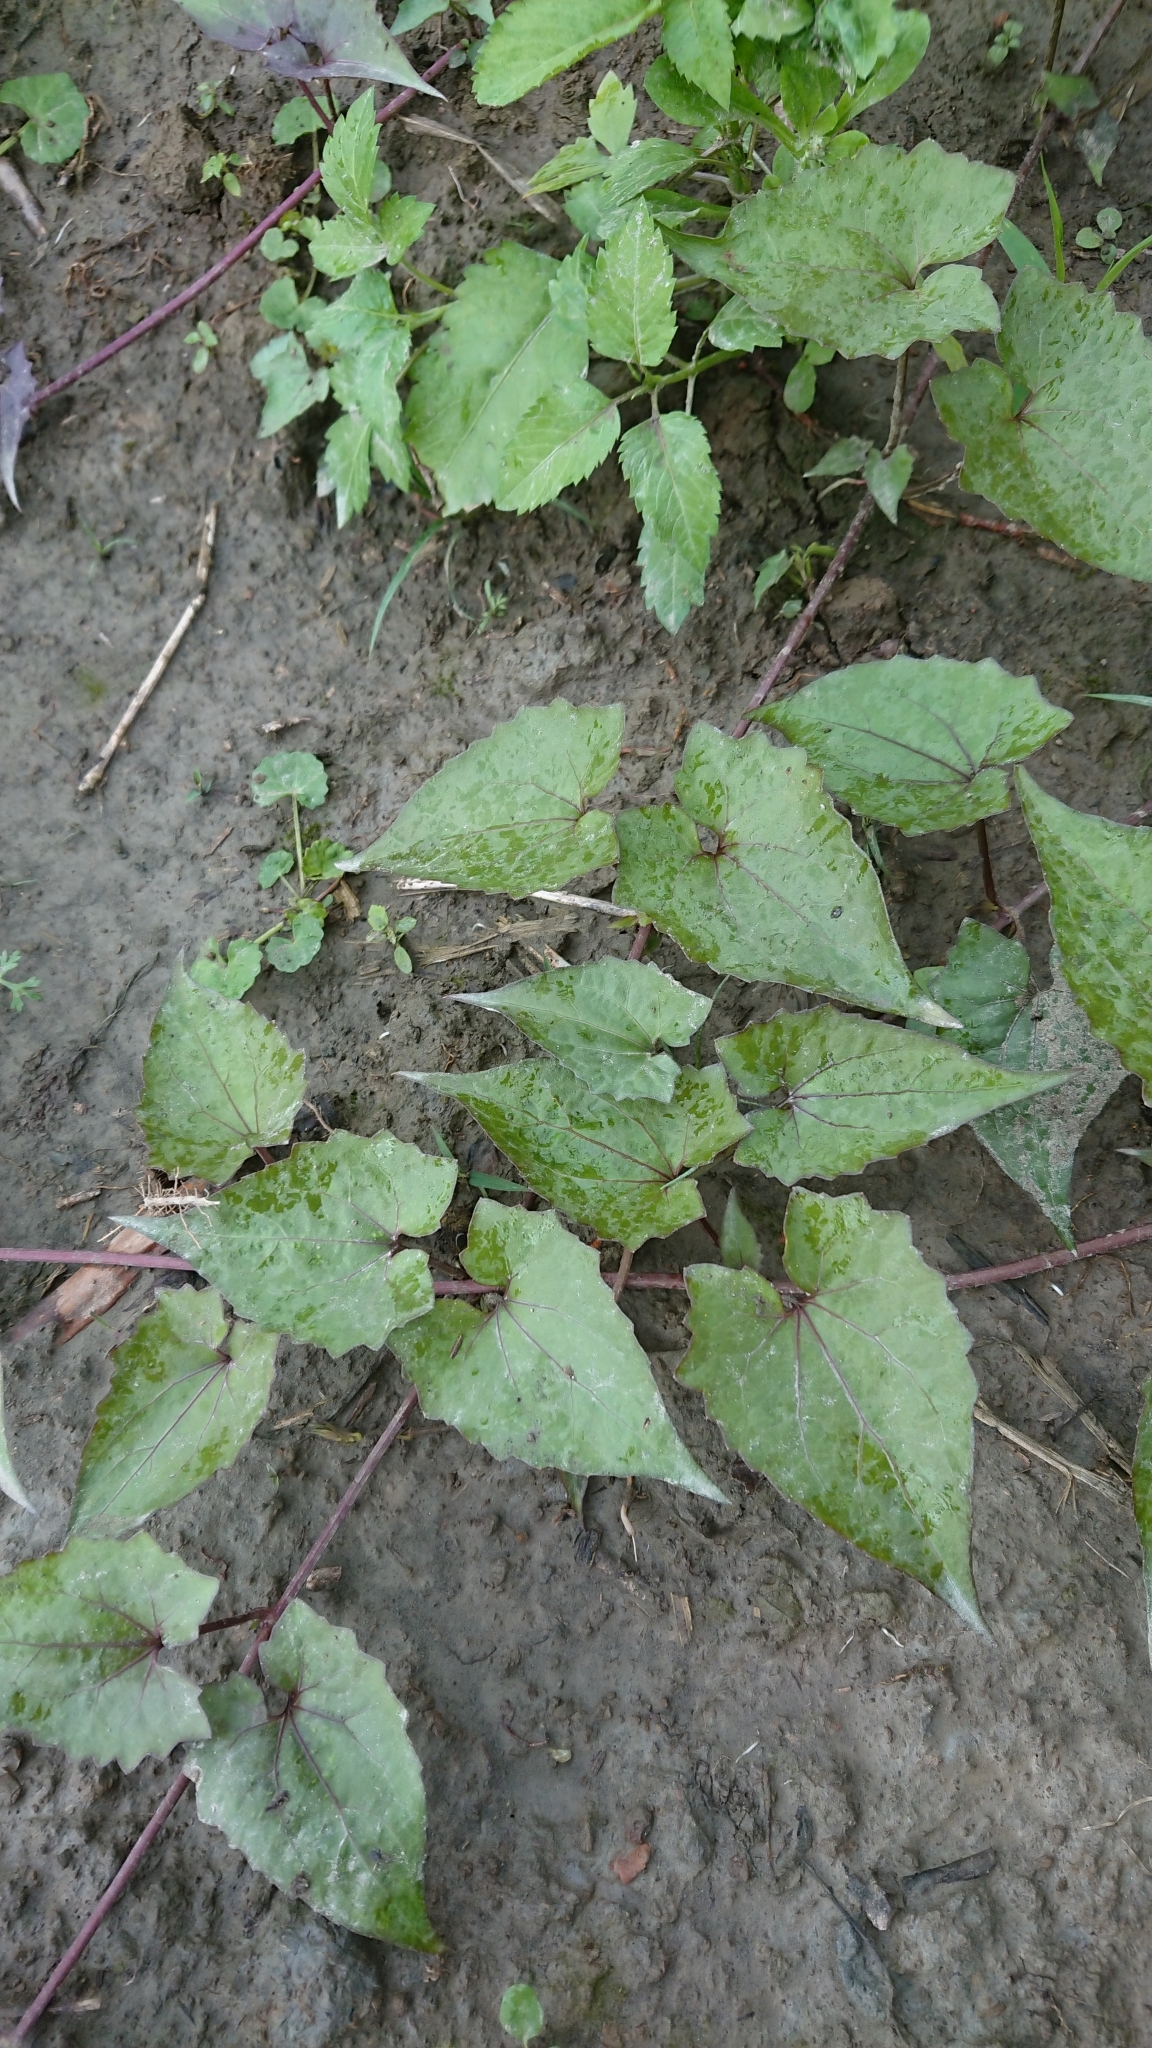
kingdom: Plantae
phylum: Tracheophyta
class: Magnoliopsida
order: Asterales
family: Asteraceae
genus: Mikania
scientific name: Mikania micrantha
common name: Mile-a-minute
